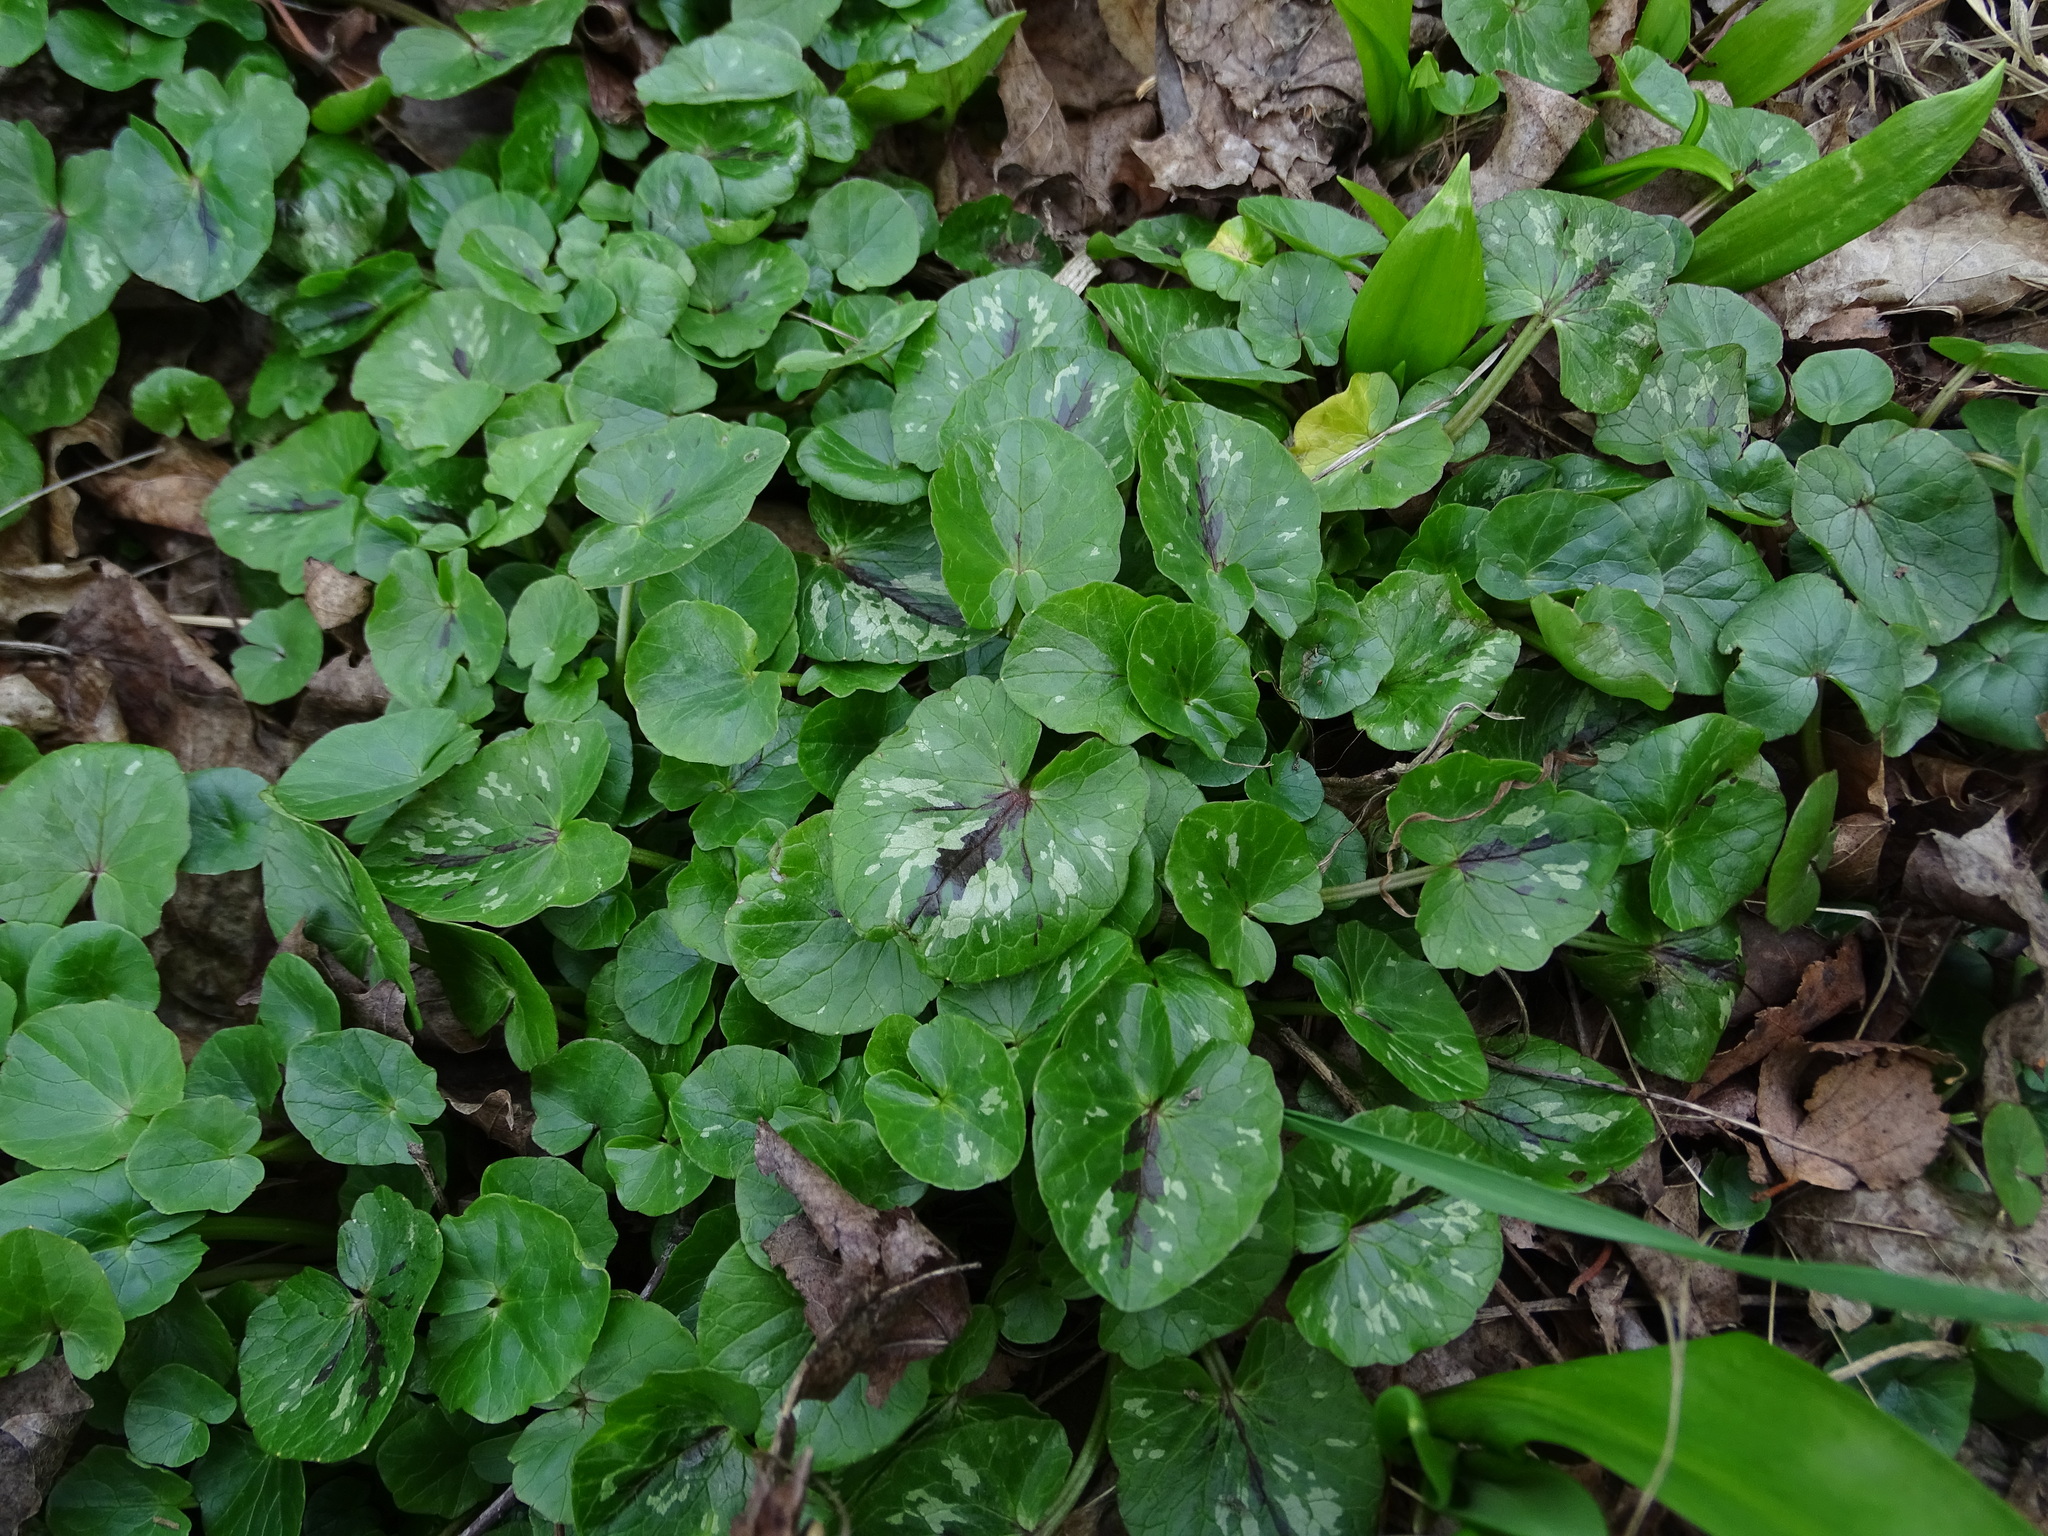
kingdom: Plantae
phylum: Tracheophyta
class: Magnoliopsida
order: Ranunculales
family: Ranunculaceae
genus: Ficaria
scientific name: Ficaria verna
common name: Lesser celandine
